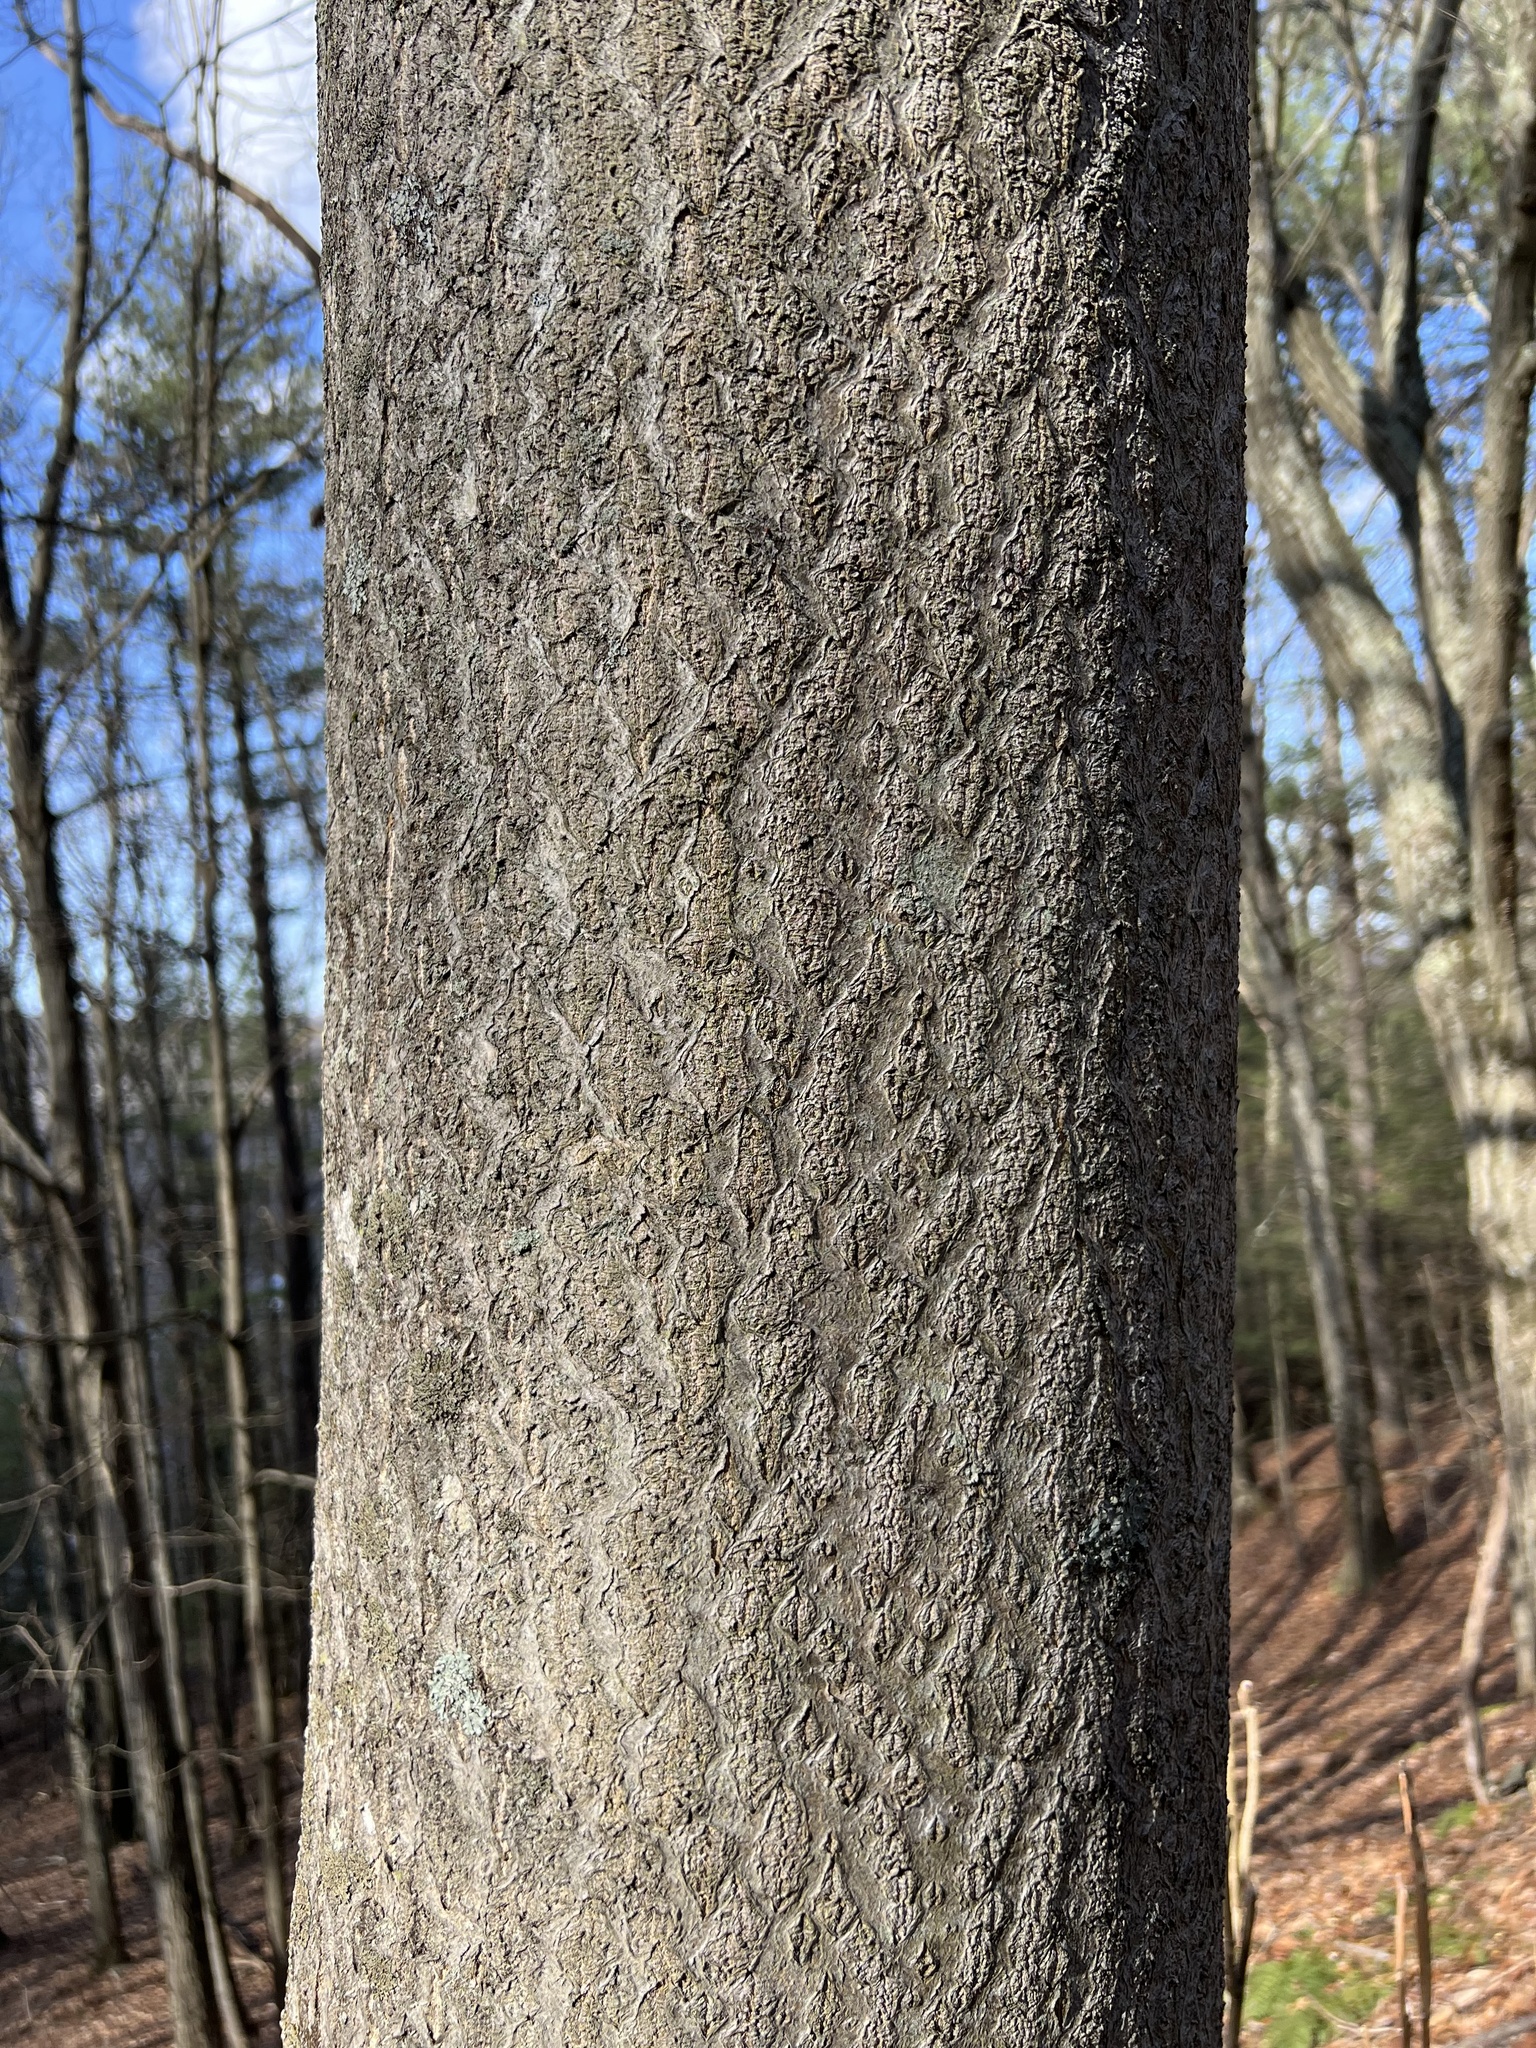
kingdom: Plantae
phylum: Tracheophyta
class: Magnoliopsida
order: Sapindales
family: Simaroubaceae
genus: Ailanthus
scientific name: Ailanthus altissima
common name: Tree-of-heaven
